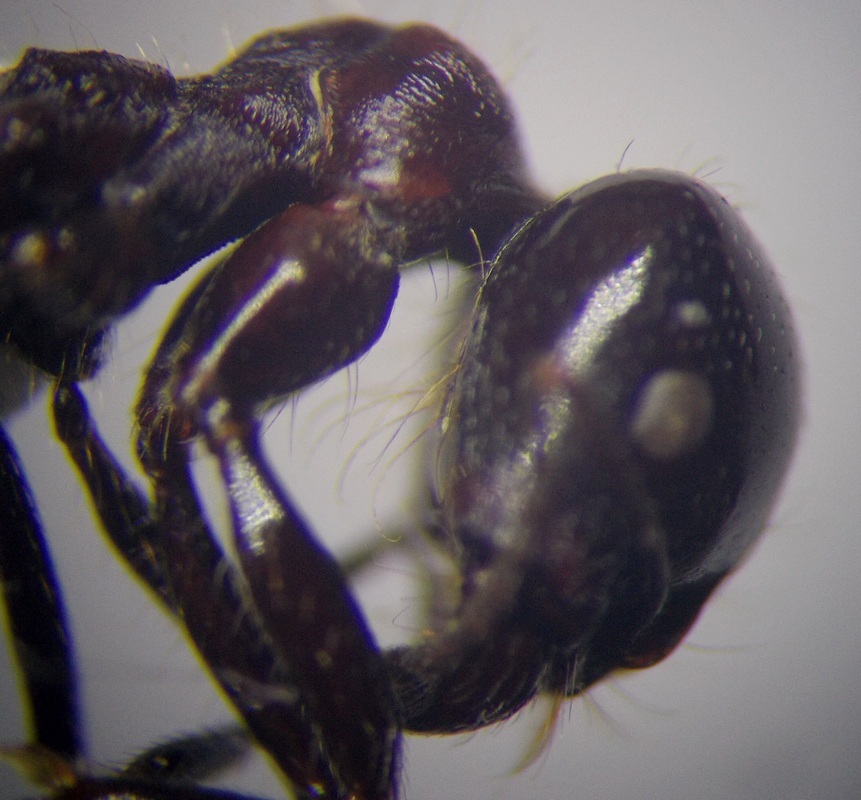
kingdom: Animalia
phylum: Arthropoda
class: Insecta
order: Hymenoptera
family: Formicidae
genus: Messor
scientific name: Messor denticulatus
